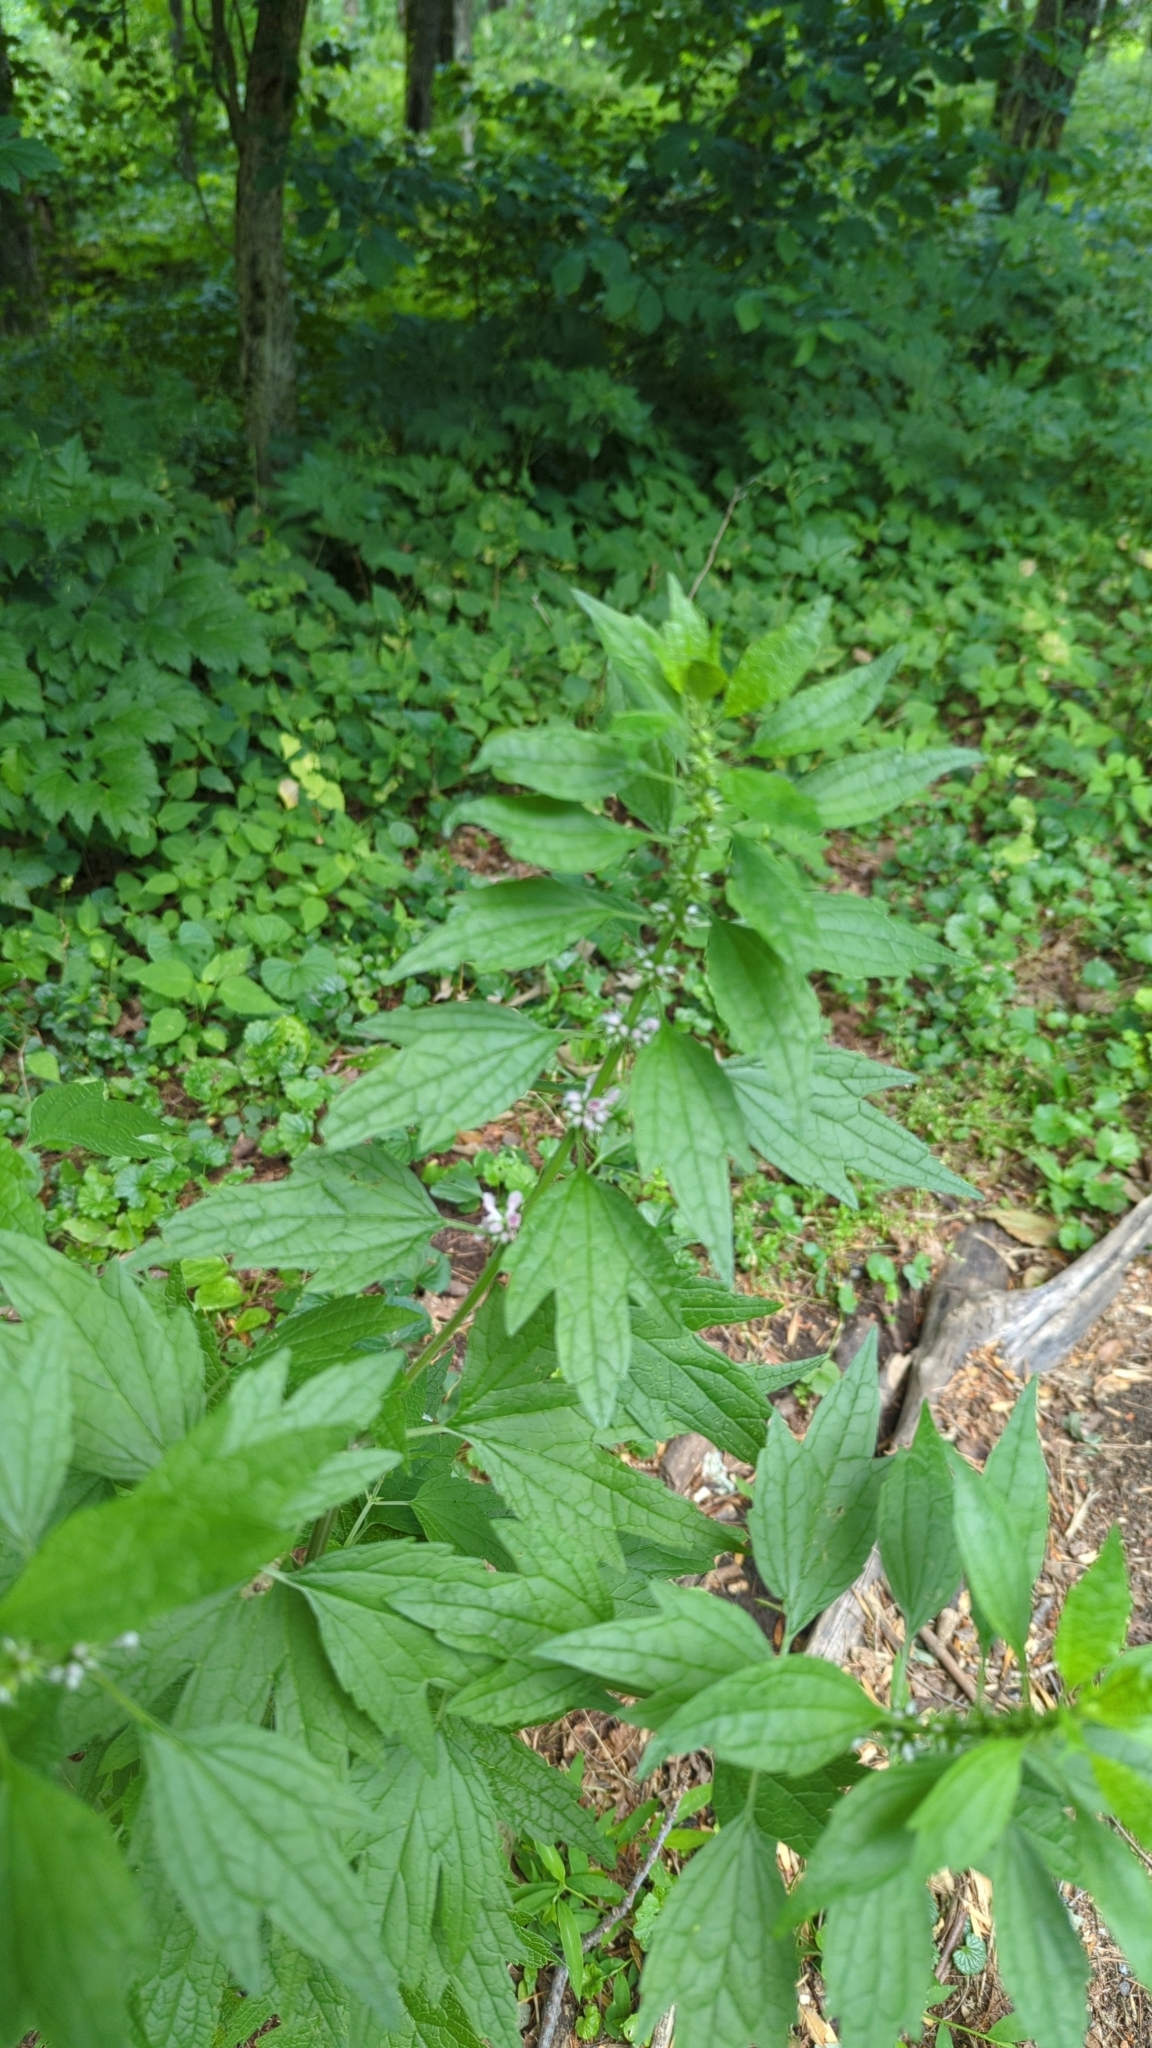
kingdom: Plantae
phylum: Tracheophyta
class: Magnoliopsida
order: Lamiales
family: Lamiaceae
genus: Leonurus
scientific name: Leonurus cardiaca
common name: Motherwort
